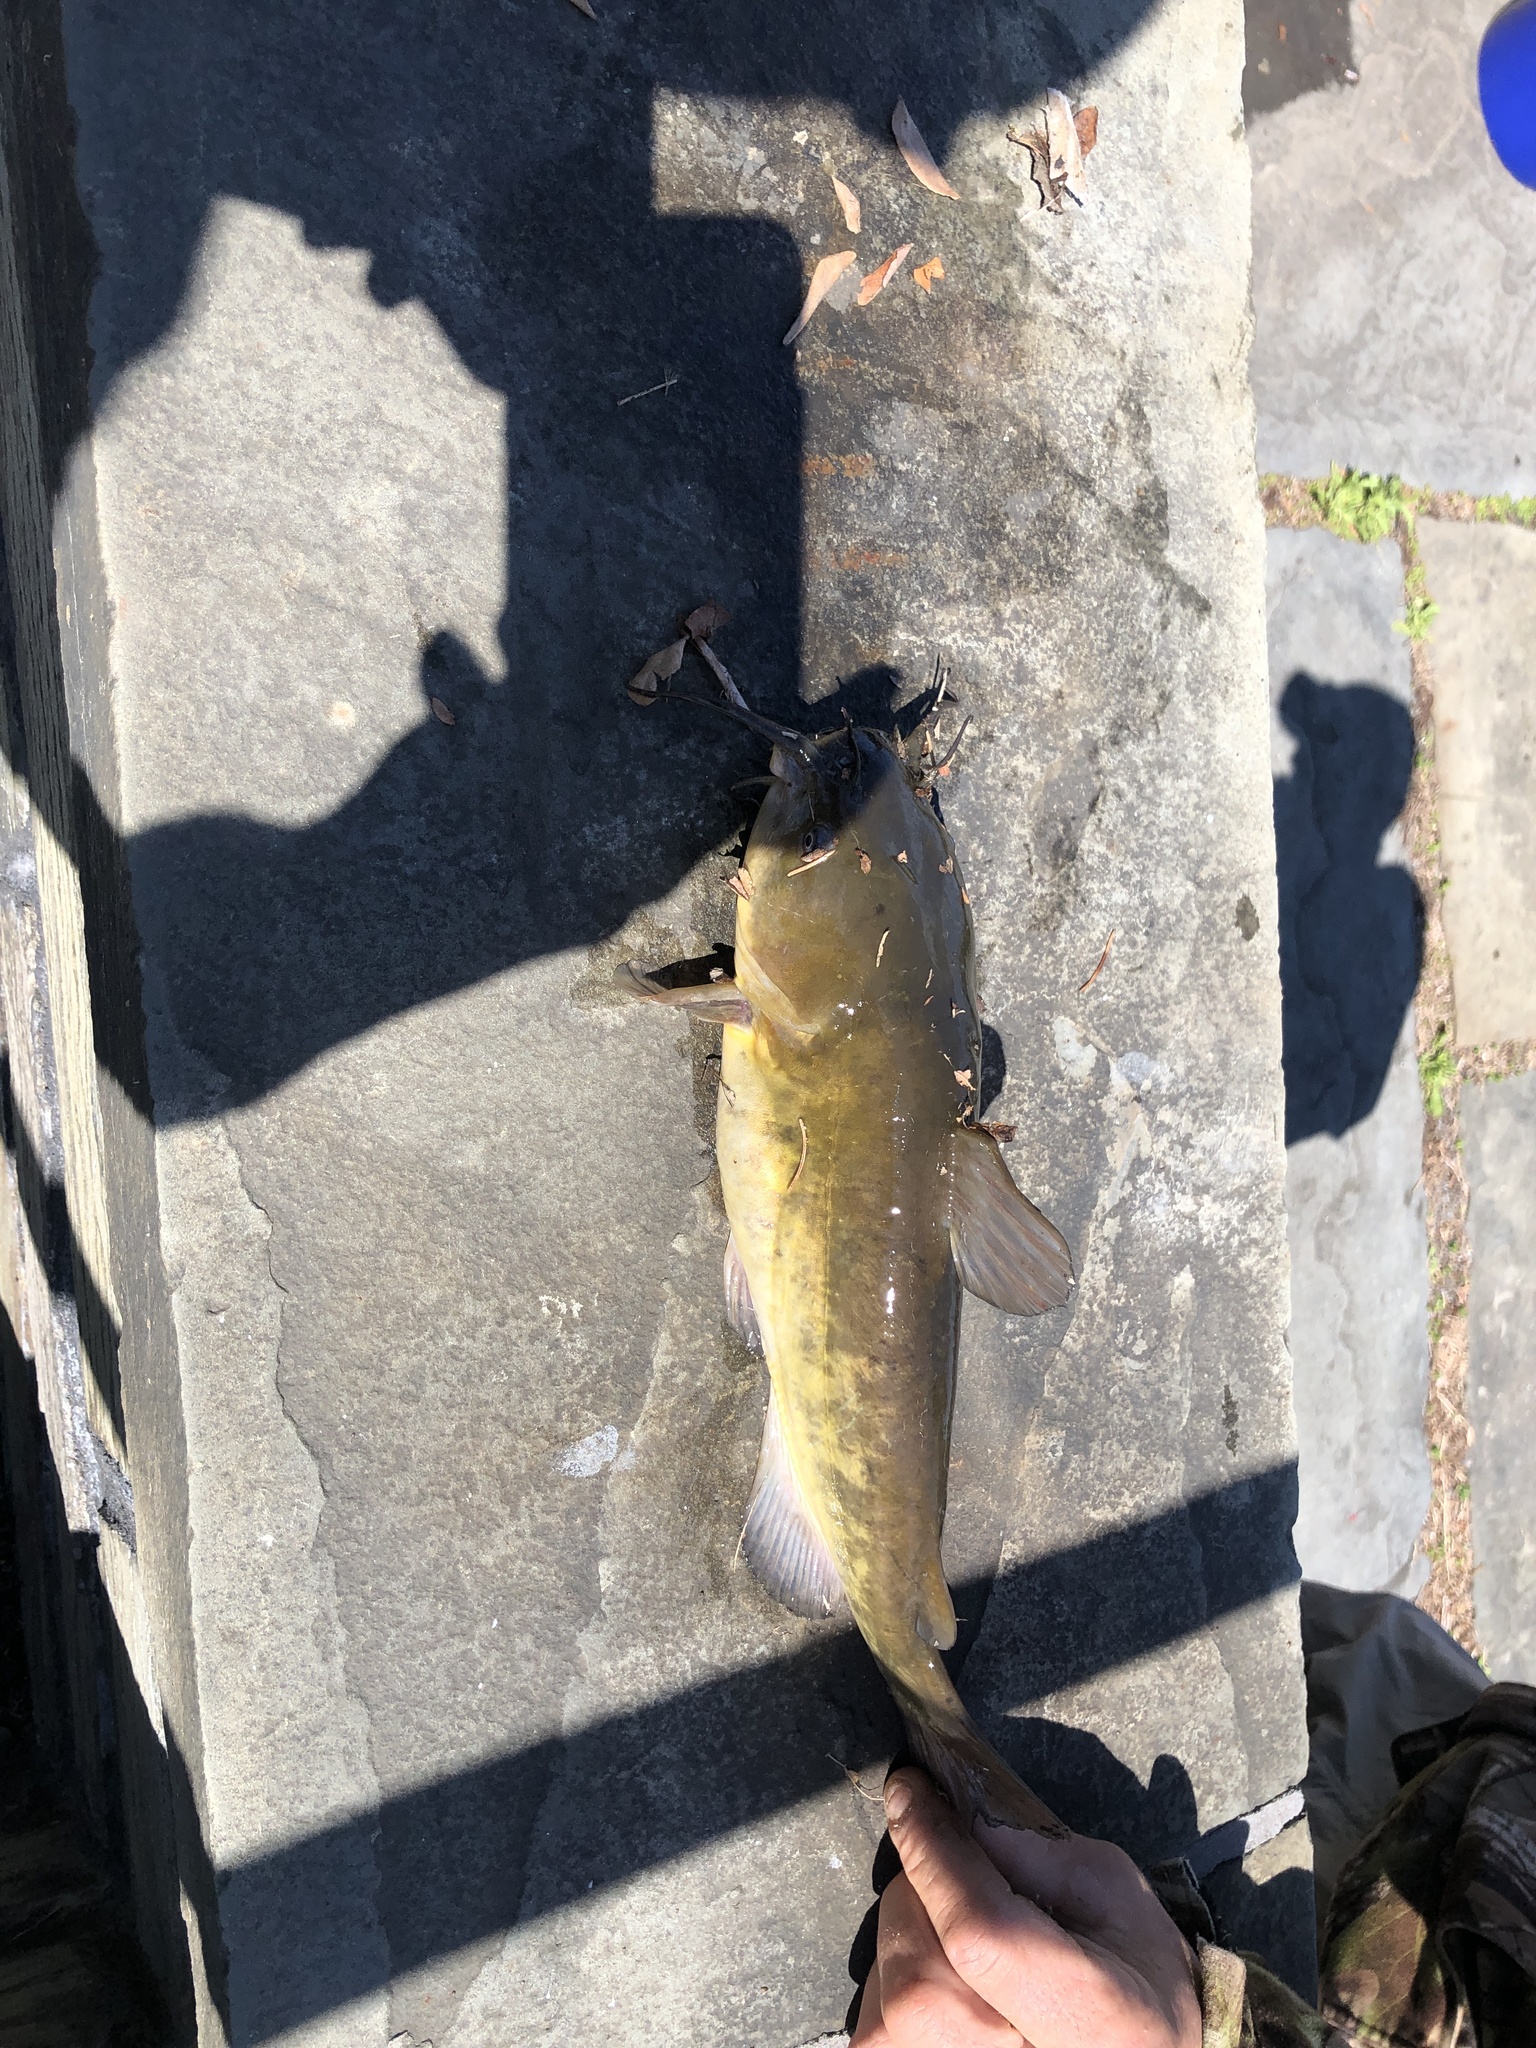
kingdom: Animalia
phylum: Chordata
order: Siluriformes
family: Ictaluridae
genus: Ameiurus
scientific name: Ameiurus nebulosus
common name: Brown bullhead
